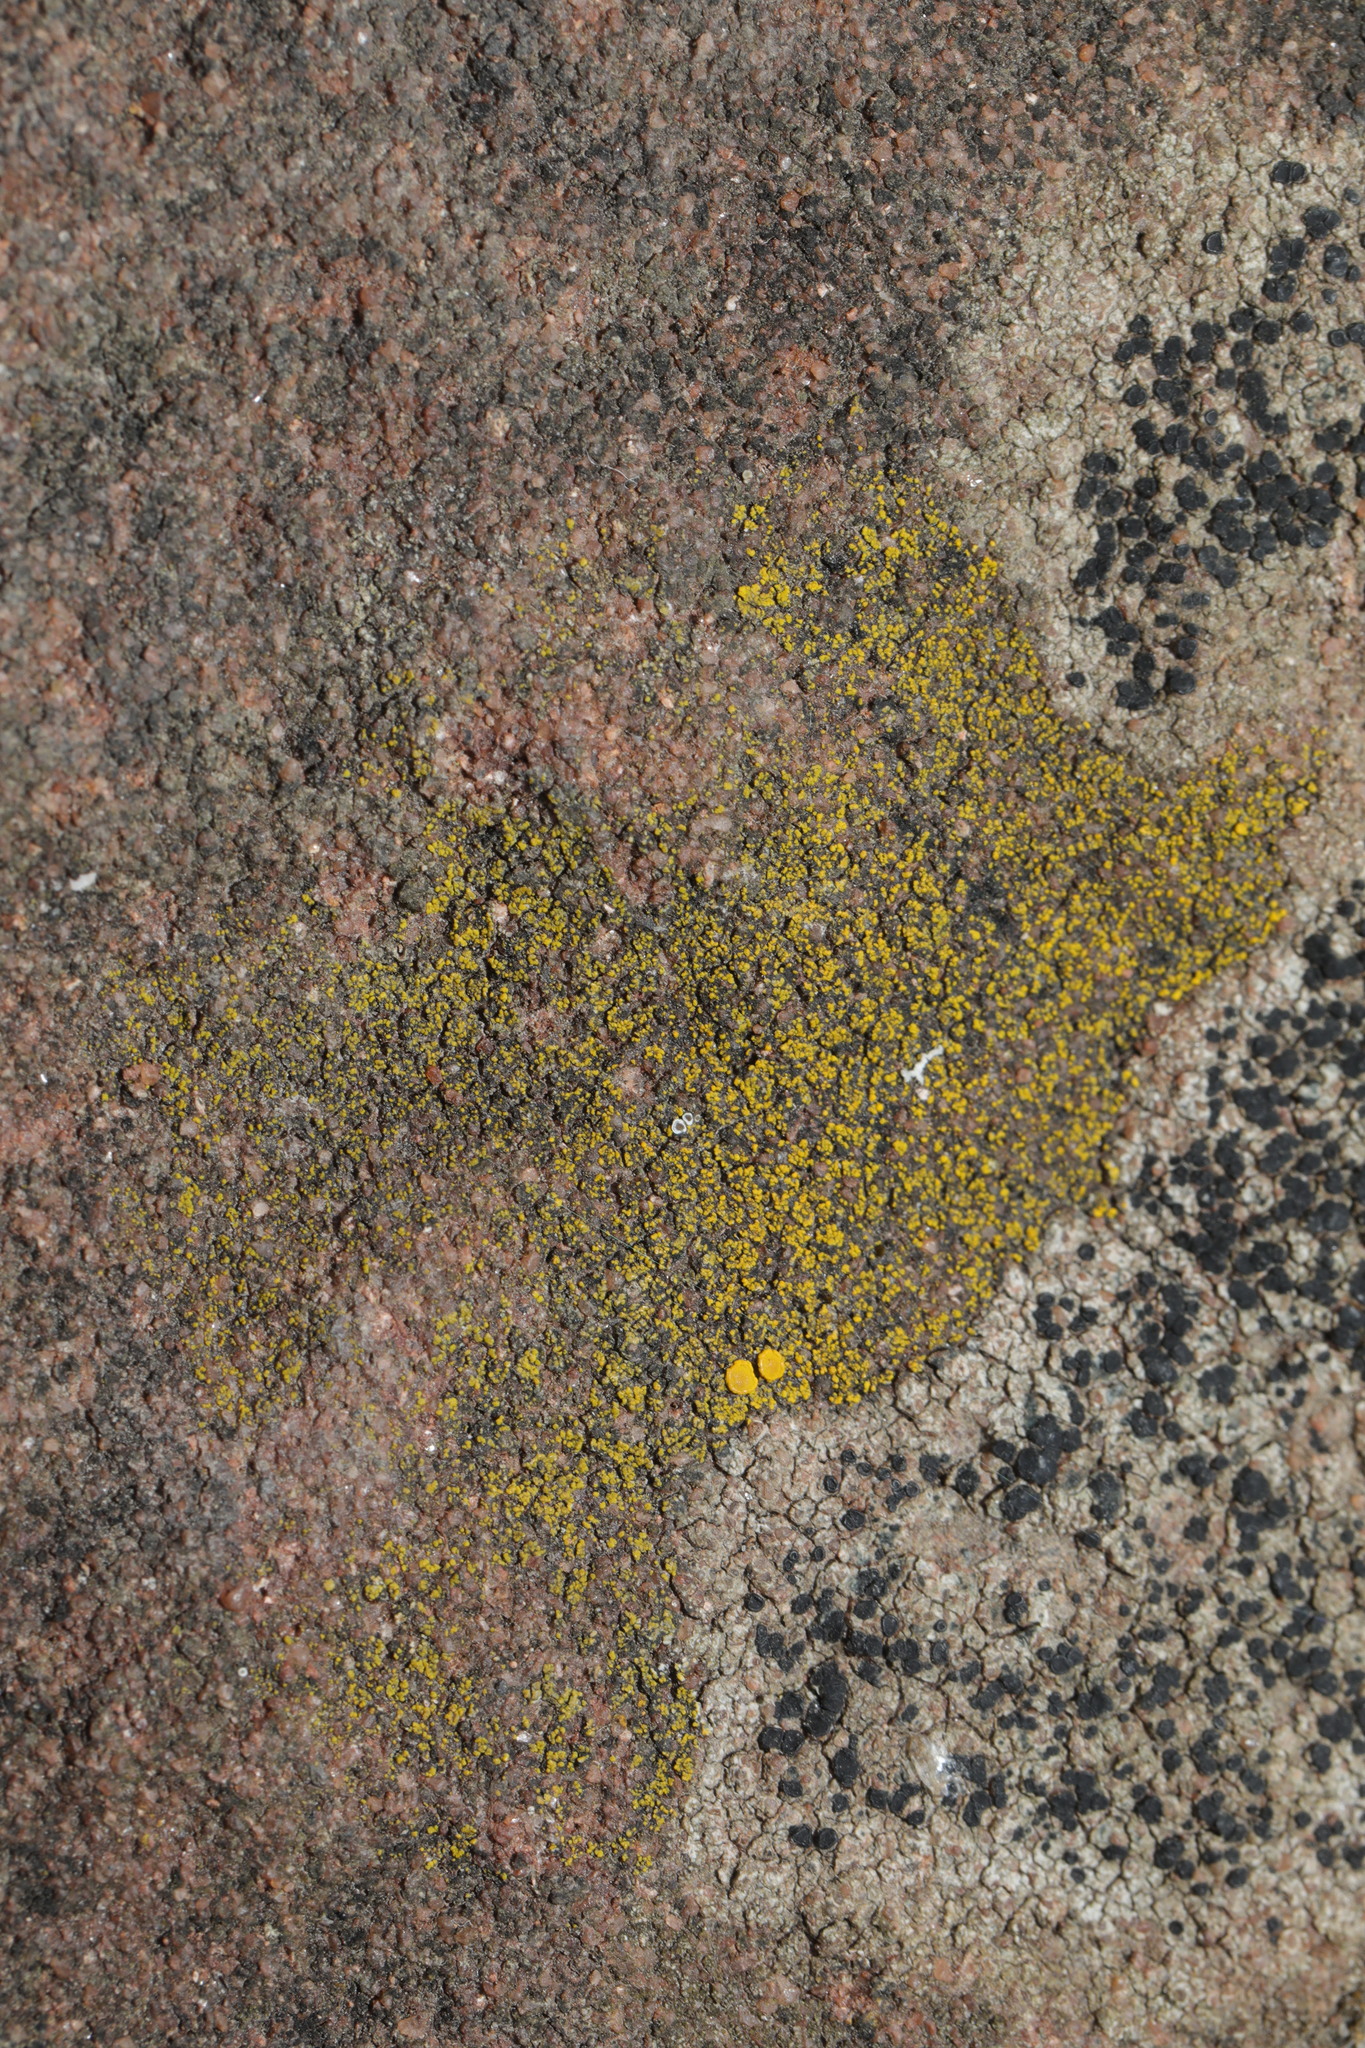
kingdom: Fungi
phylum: Ascomycota
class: Candelariomycetes
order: Candelariales
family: Candelariaceae
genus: Candelariella
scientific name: Candelariella vitellina
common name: Common goldspeck
